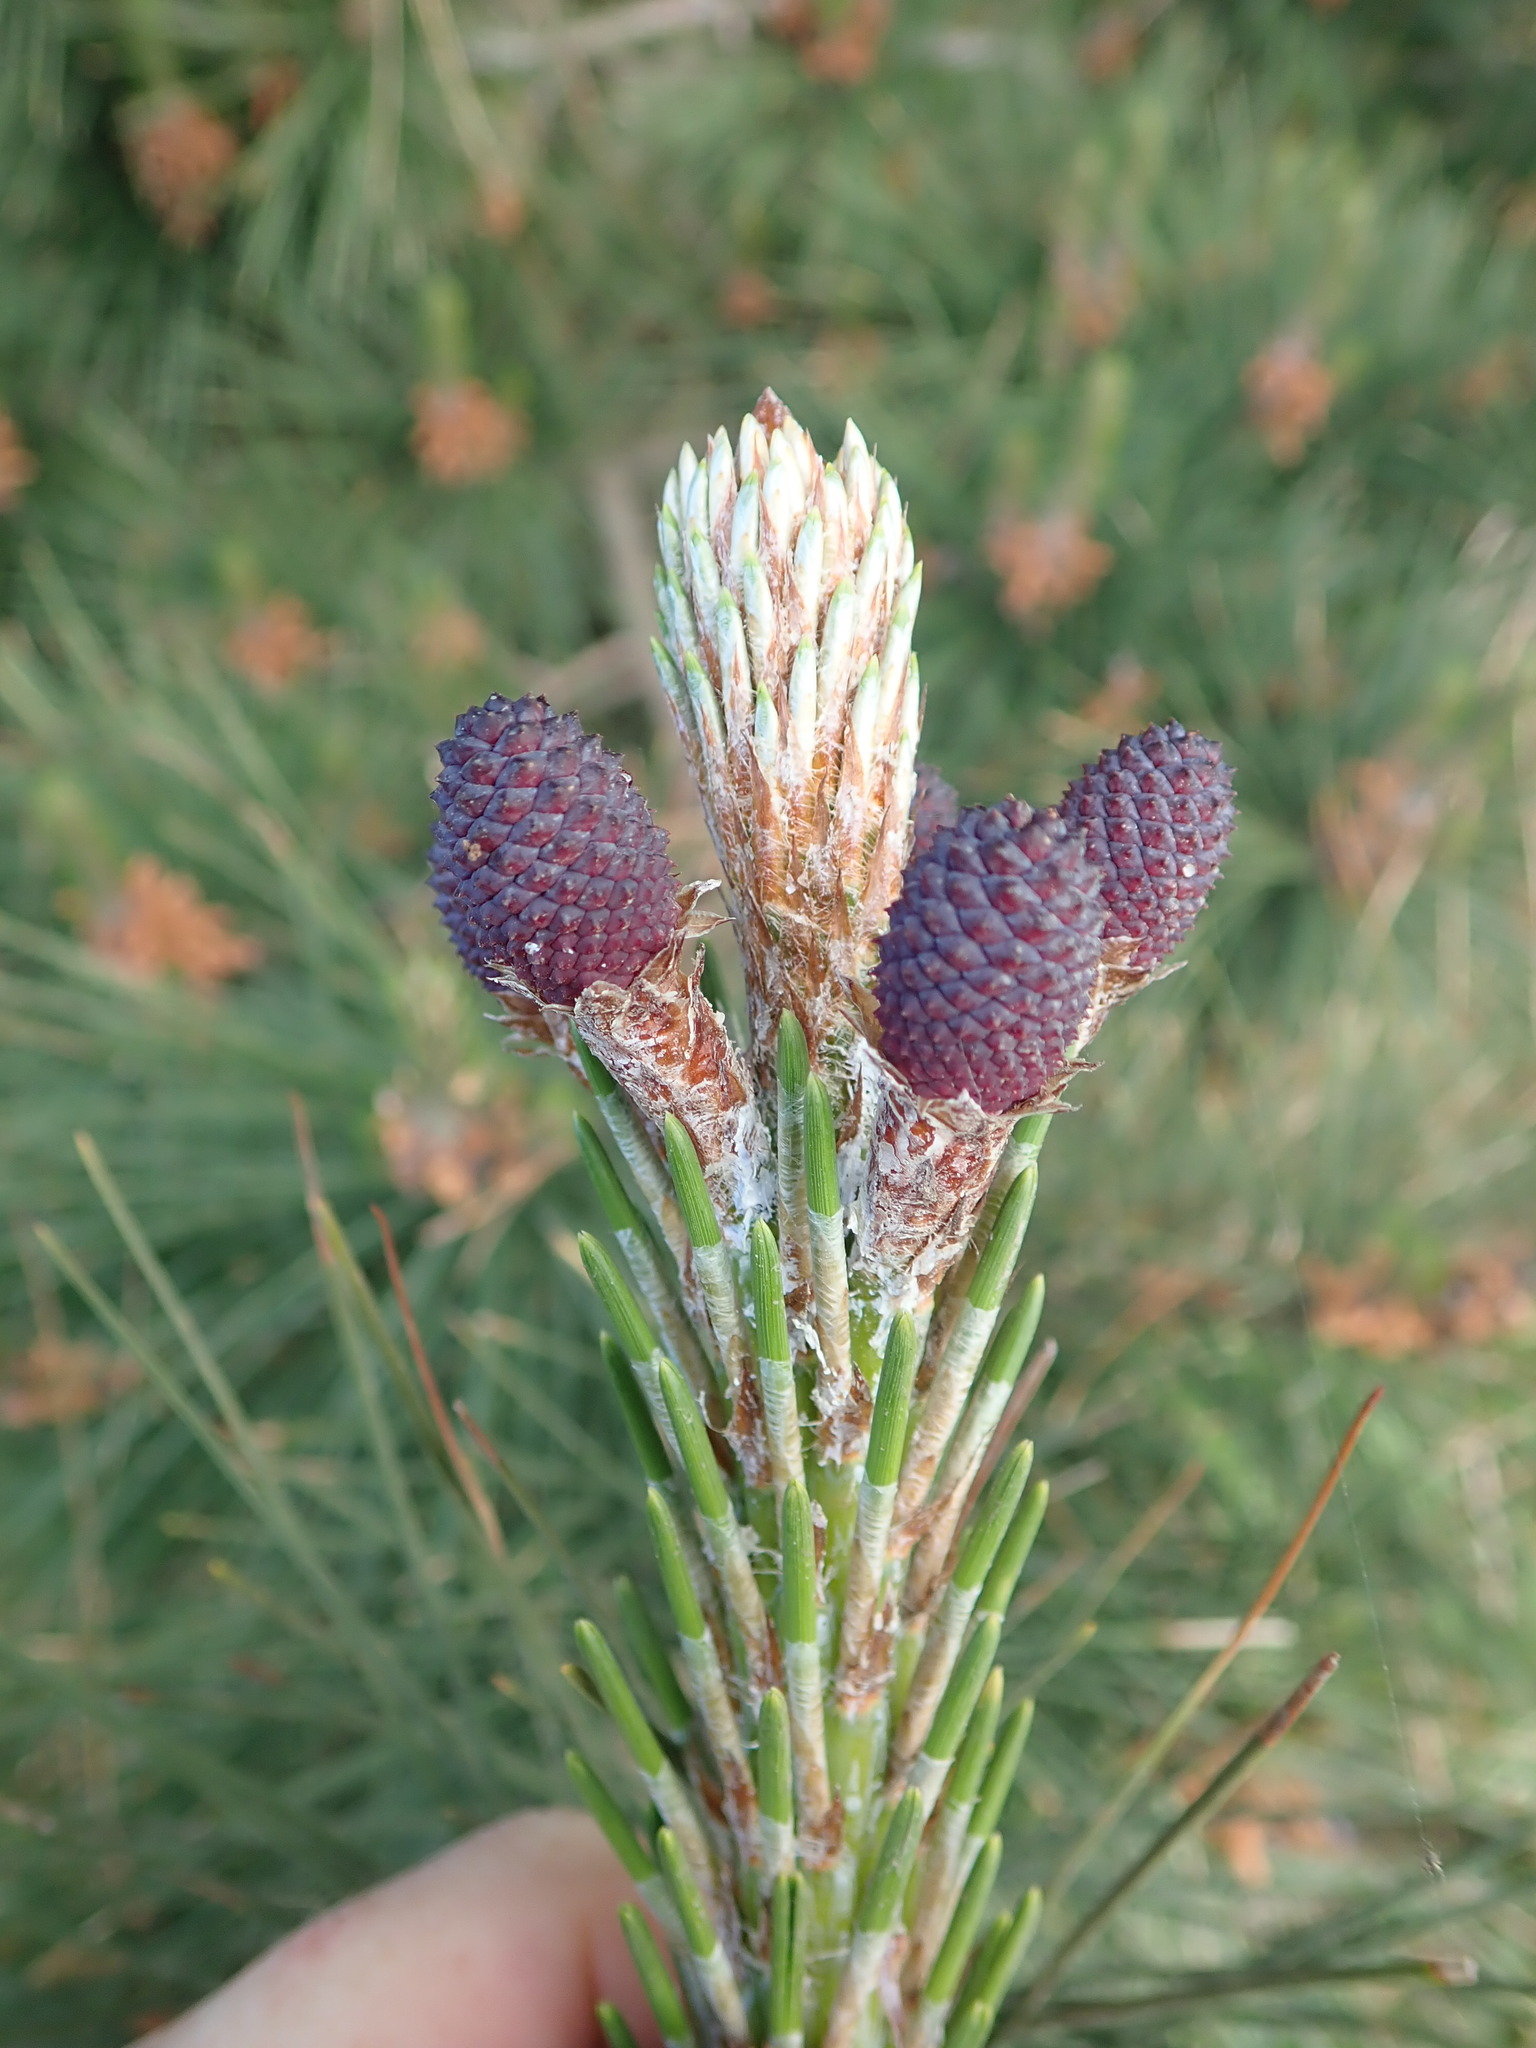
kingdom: Plantae
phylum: Tracheophyta
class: Pinopsida
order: Pinales
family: Pinaceae
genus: Pinus
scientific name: Pinus radiata
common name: Monterey pine
